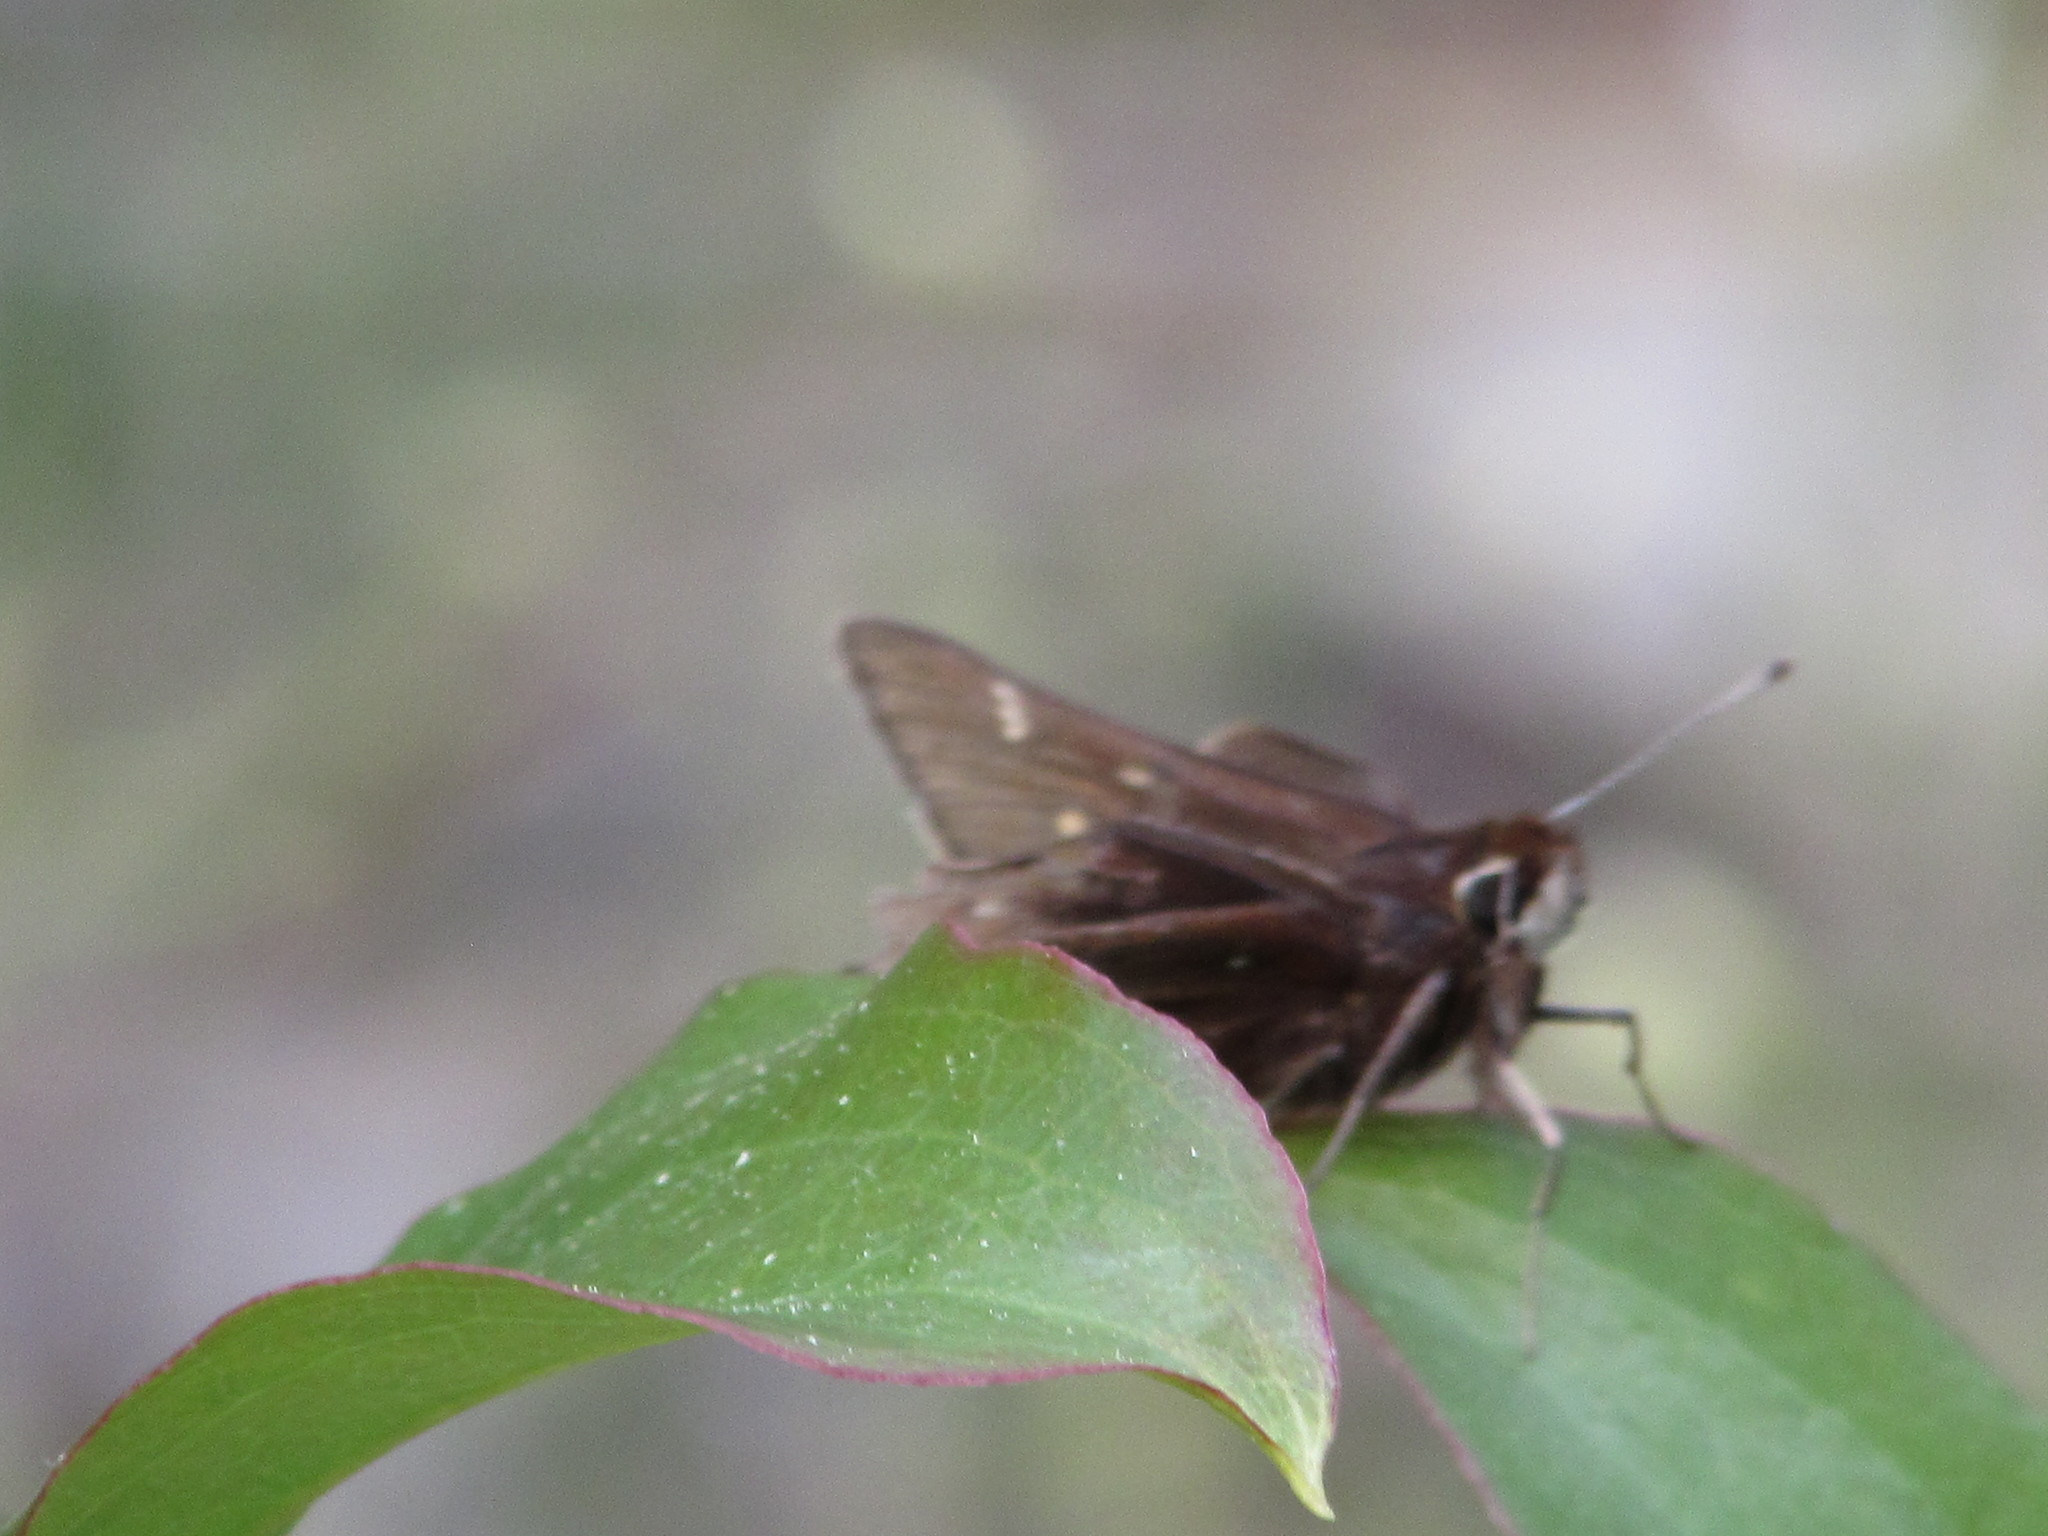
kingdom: Animalia
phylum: Arthropoda
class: Insecta
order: Lepidoptera
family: Hesperiidae
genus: Atrytonopsis
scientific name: Atrytonopsis hianna
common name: Dusted skipper
